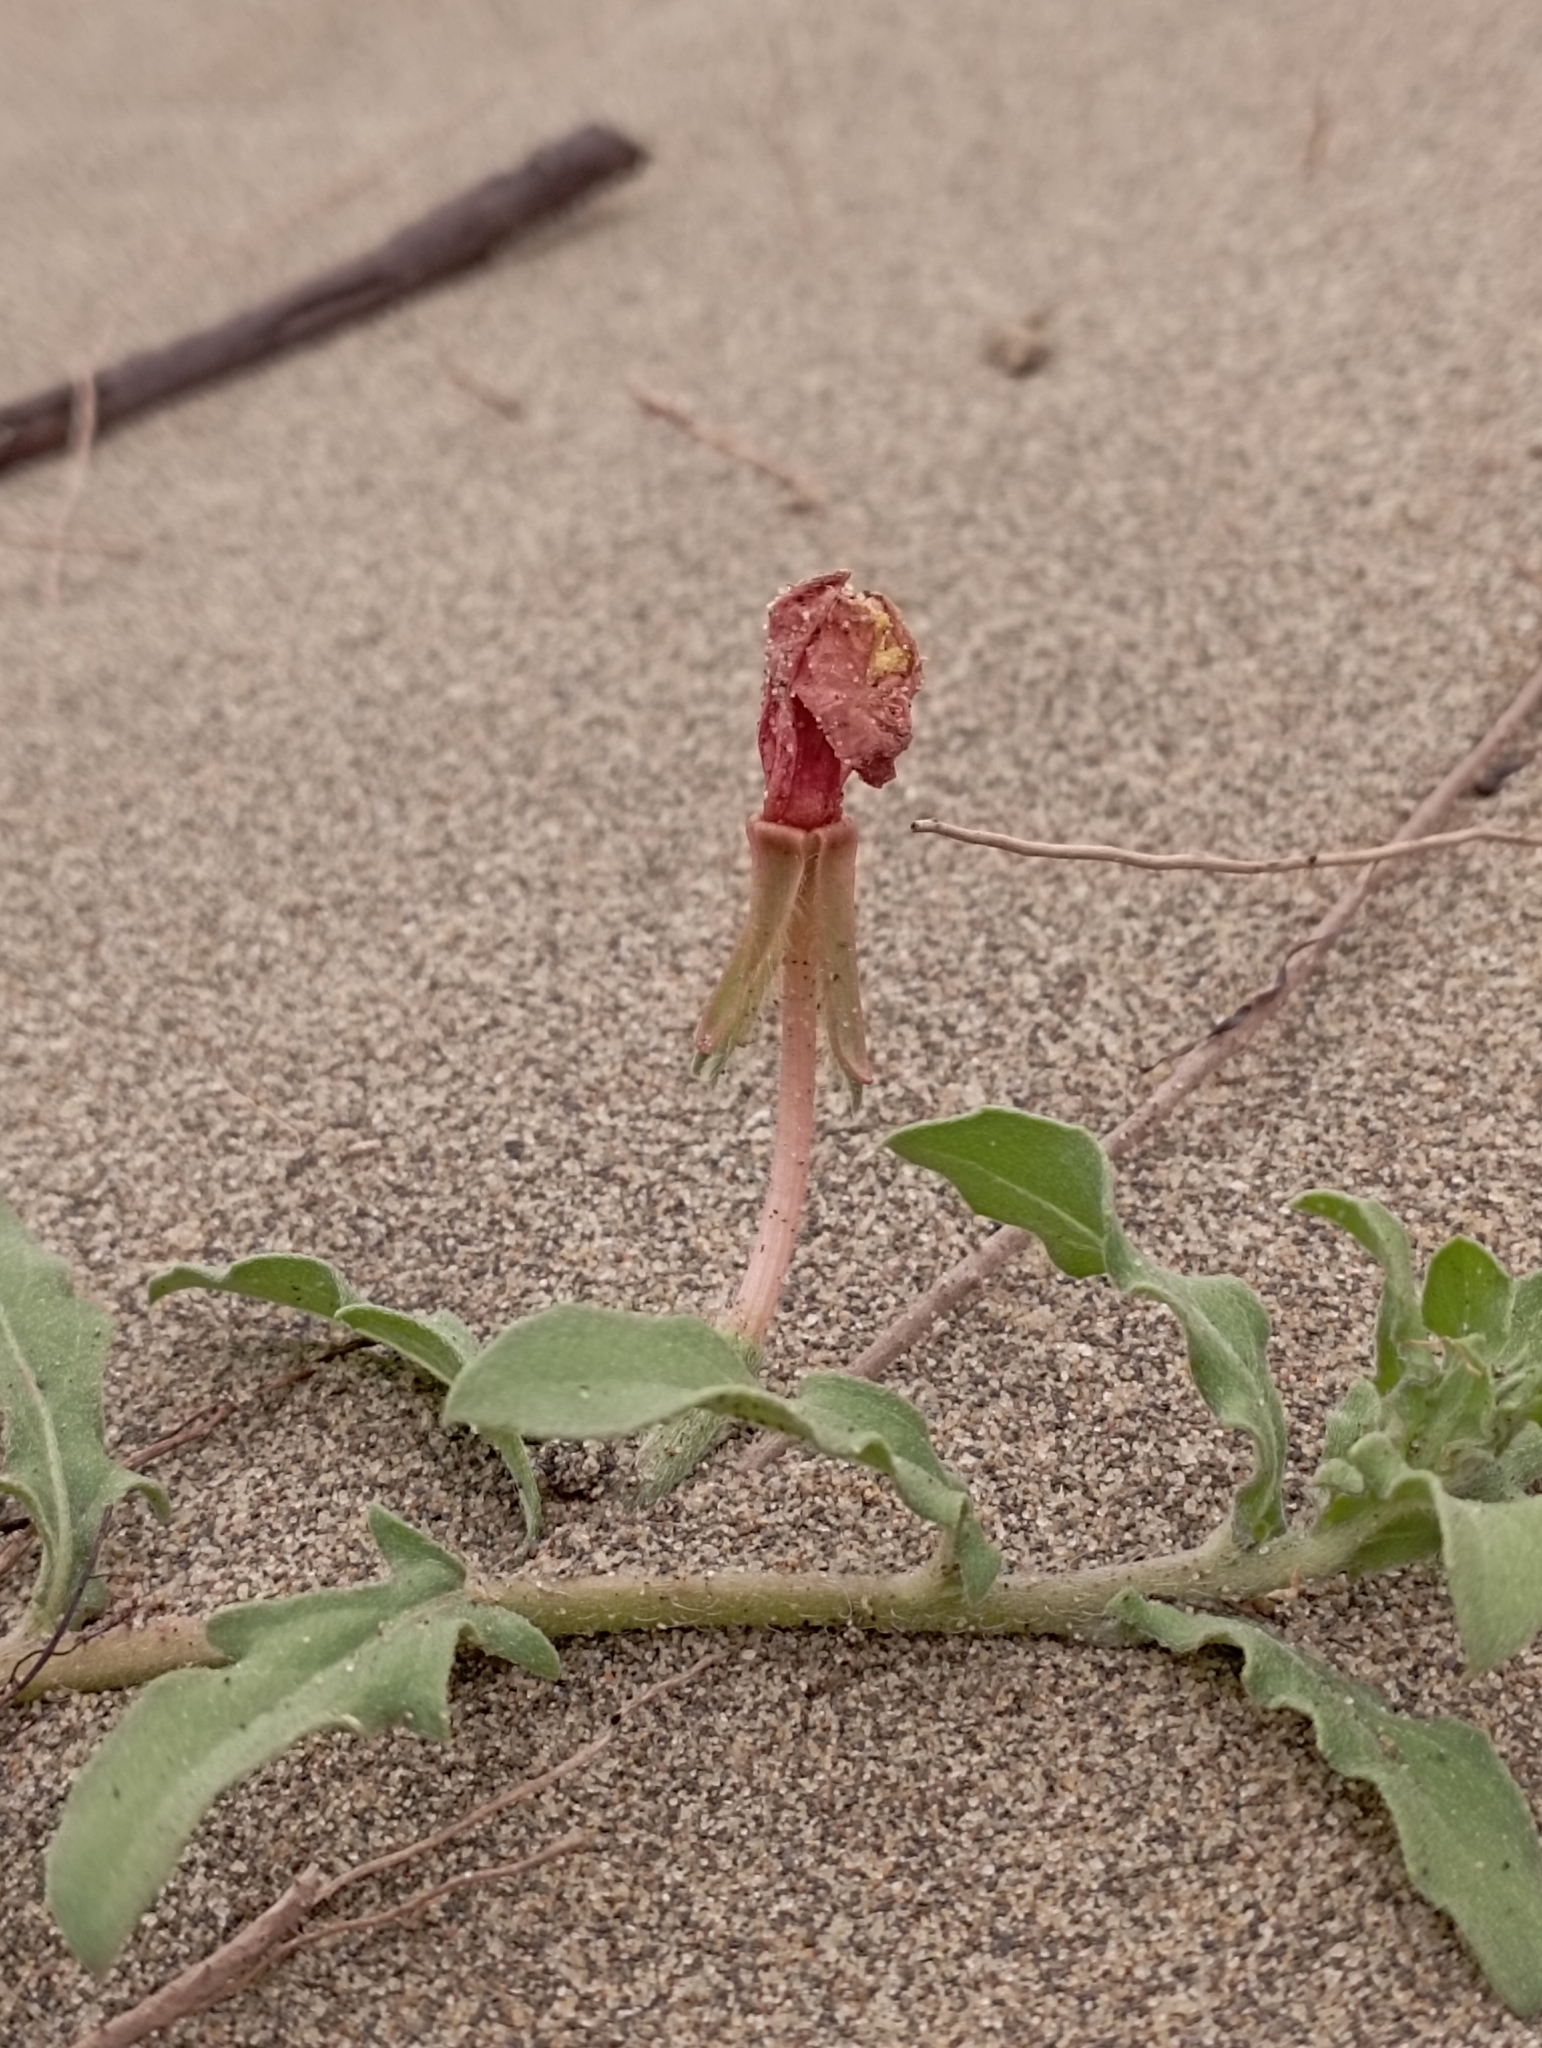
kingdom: Plantae
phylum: Tracheophyta
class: Magnoliopsida
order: Myrtales
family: Onagraceae
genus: Oenothera
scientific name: Oenothera laciniata
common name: Cut-leaved evening-primrose
